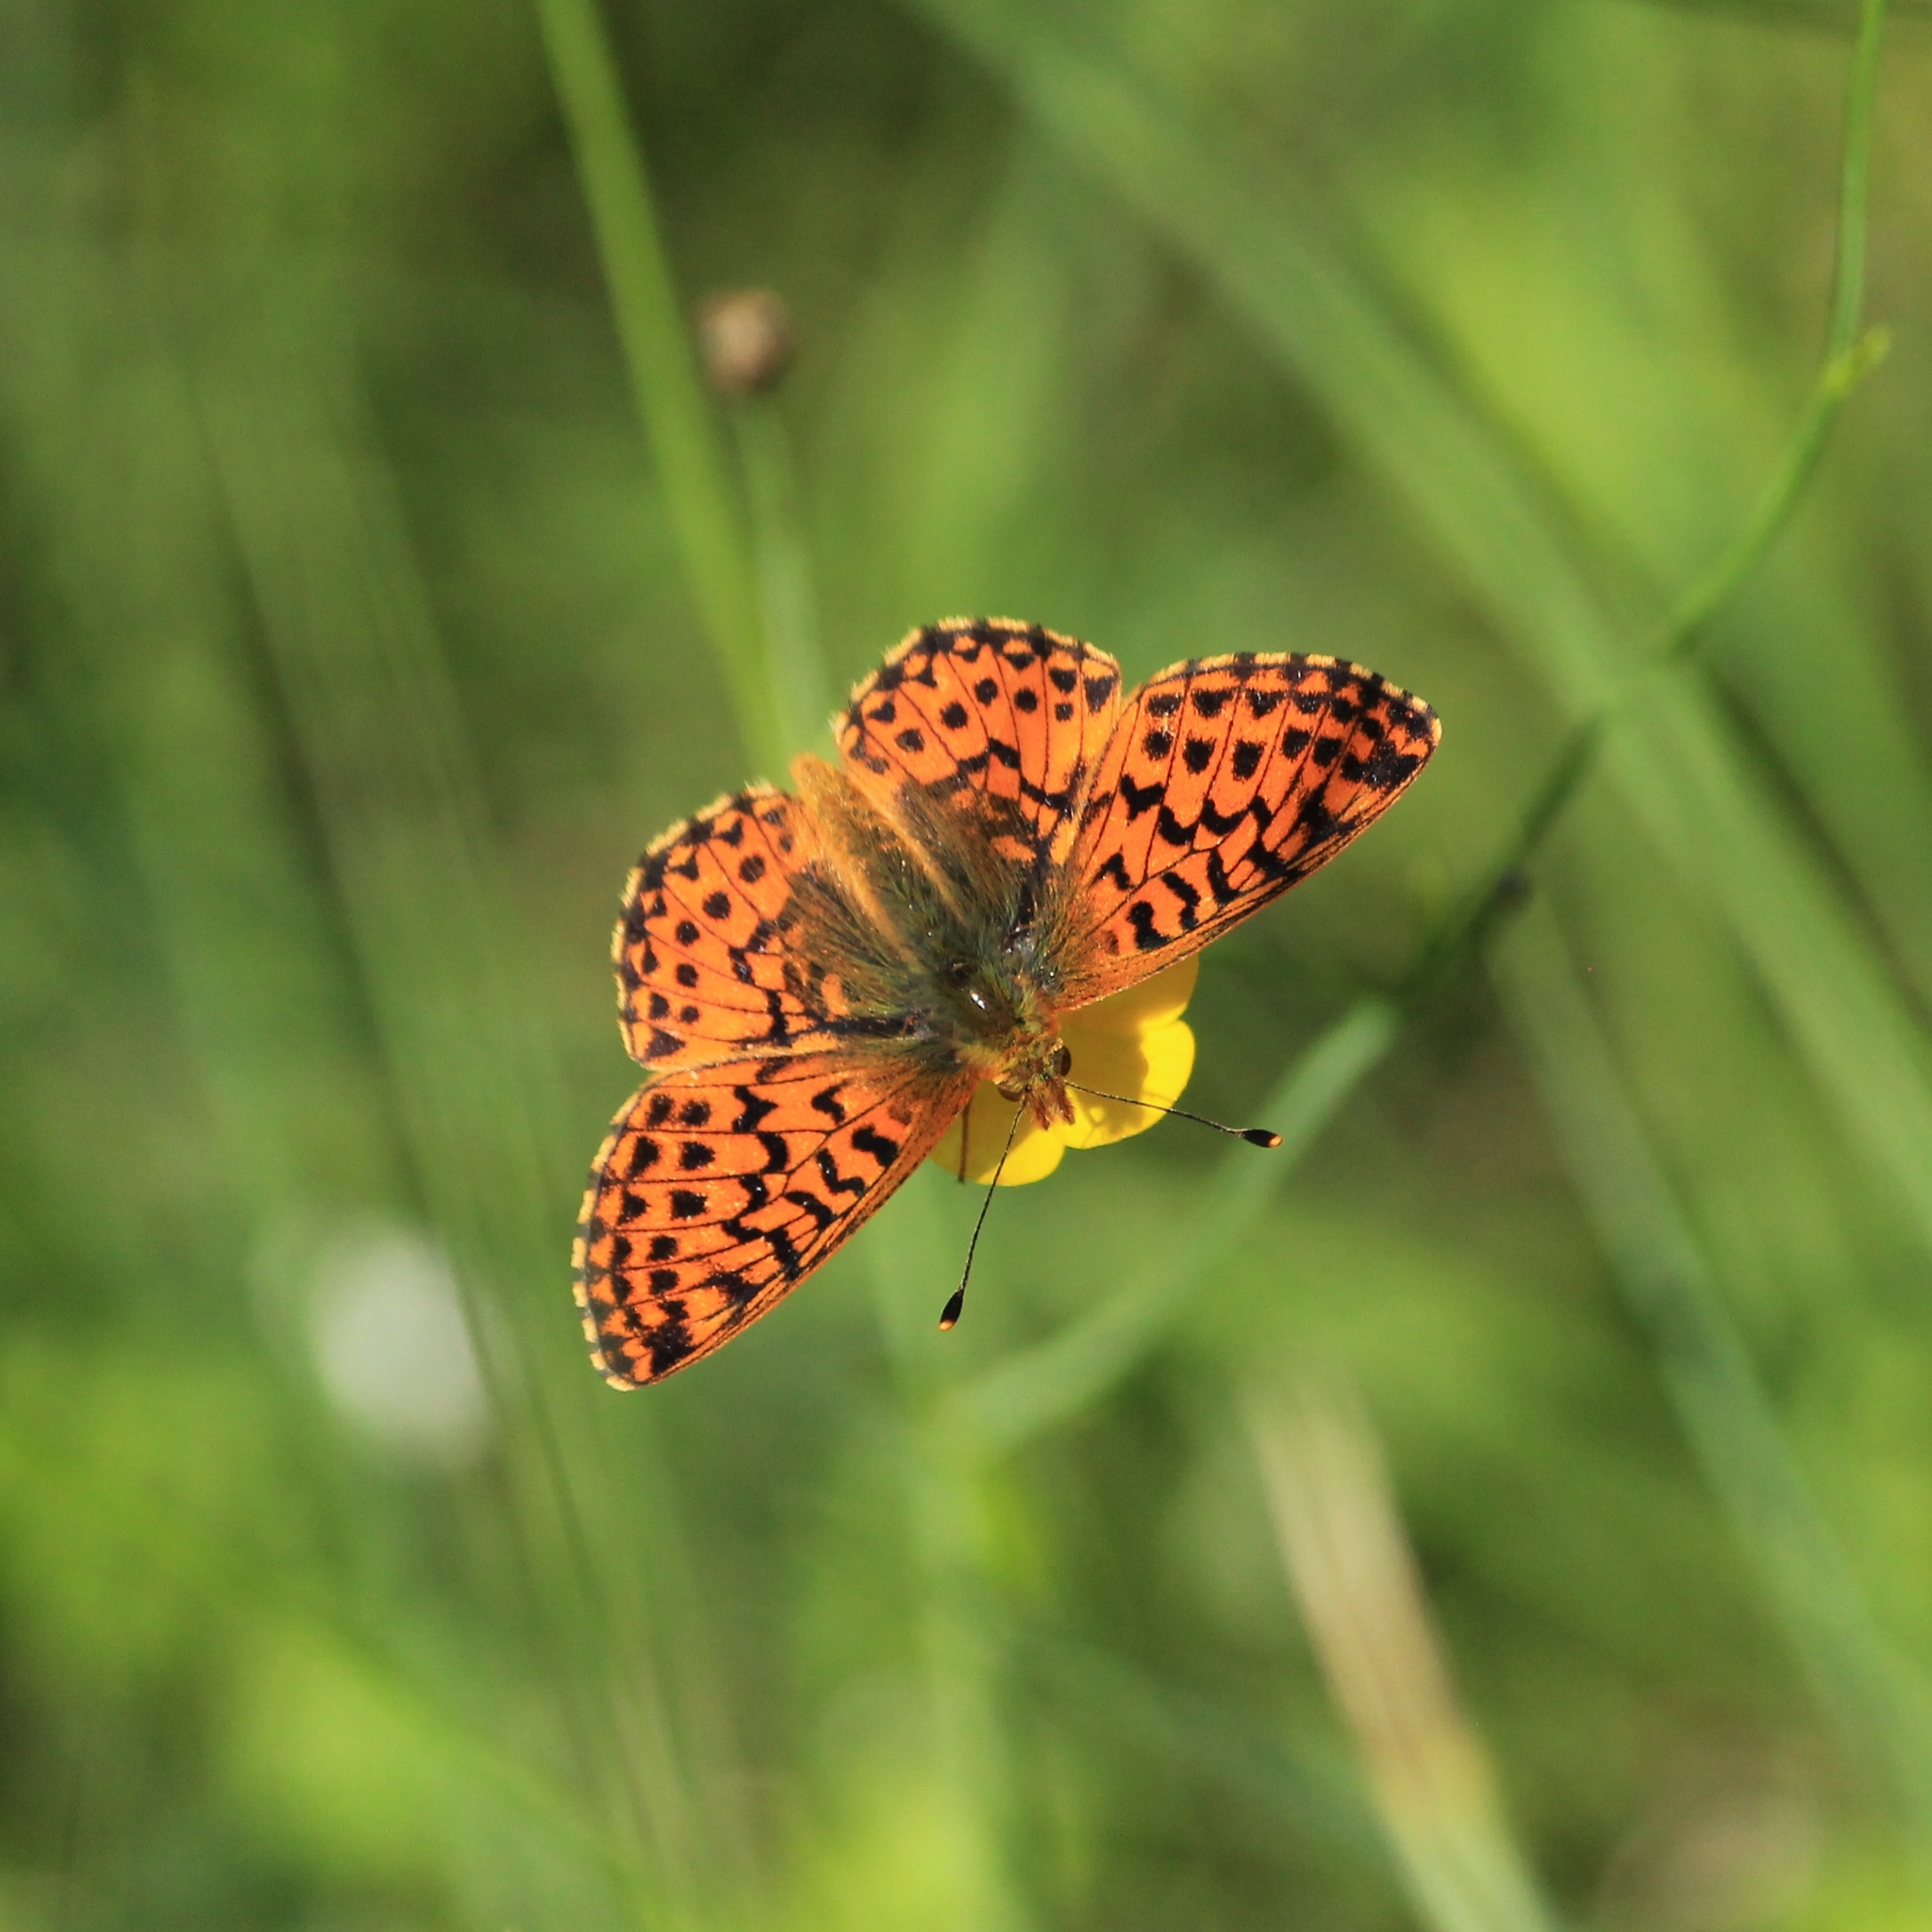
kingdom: Animalia
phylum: Arthropoda
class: Insecta
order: Lepidoptera
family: Nymphalidae
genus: Boloria
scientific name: Boloria aquilonaris
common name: Cranberry fritillary
